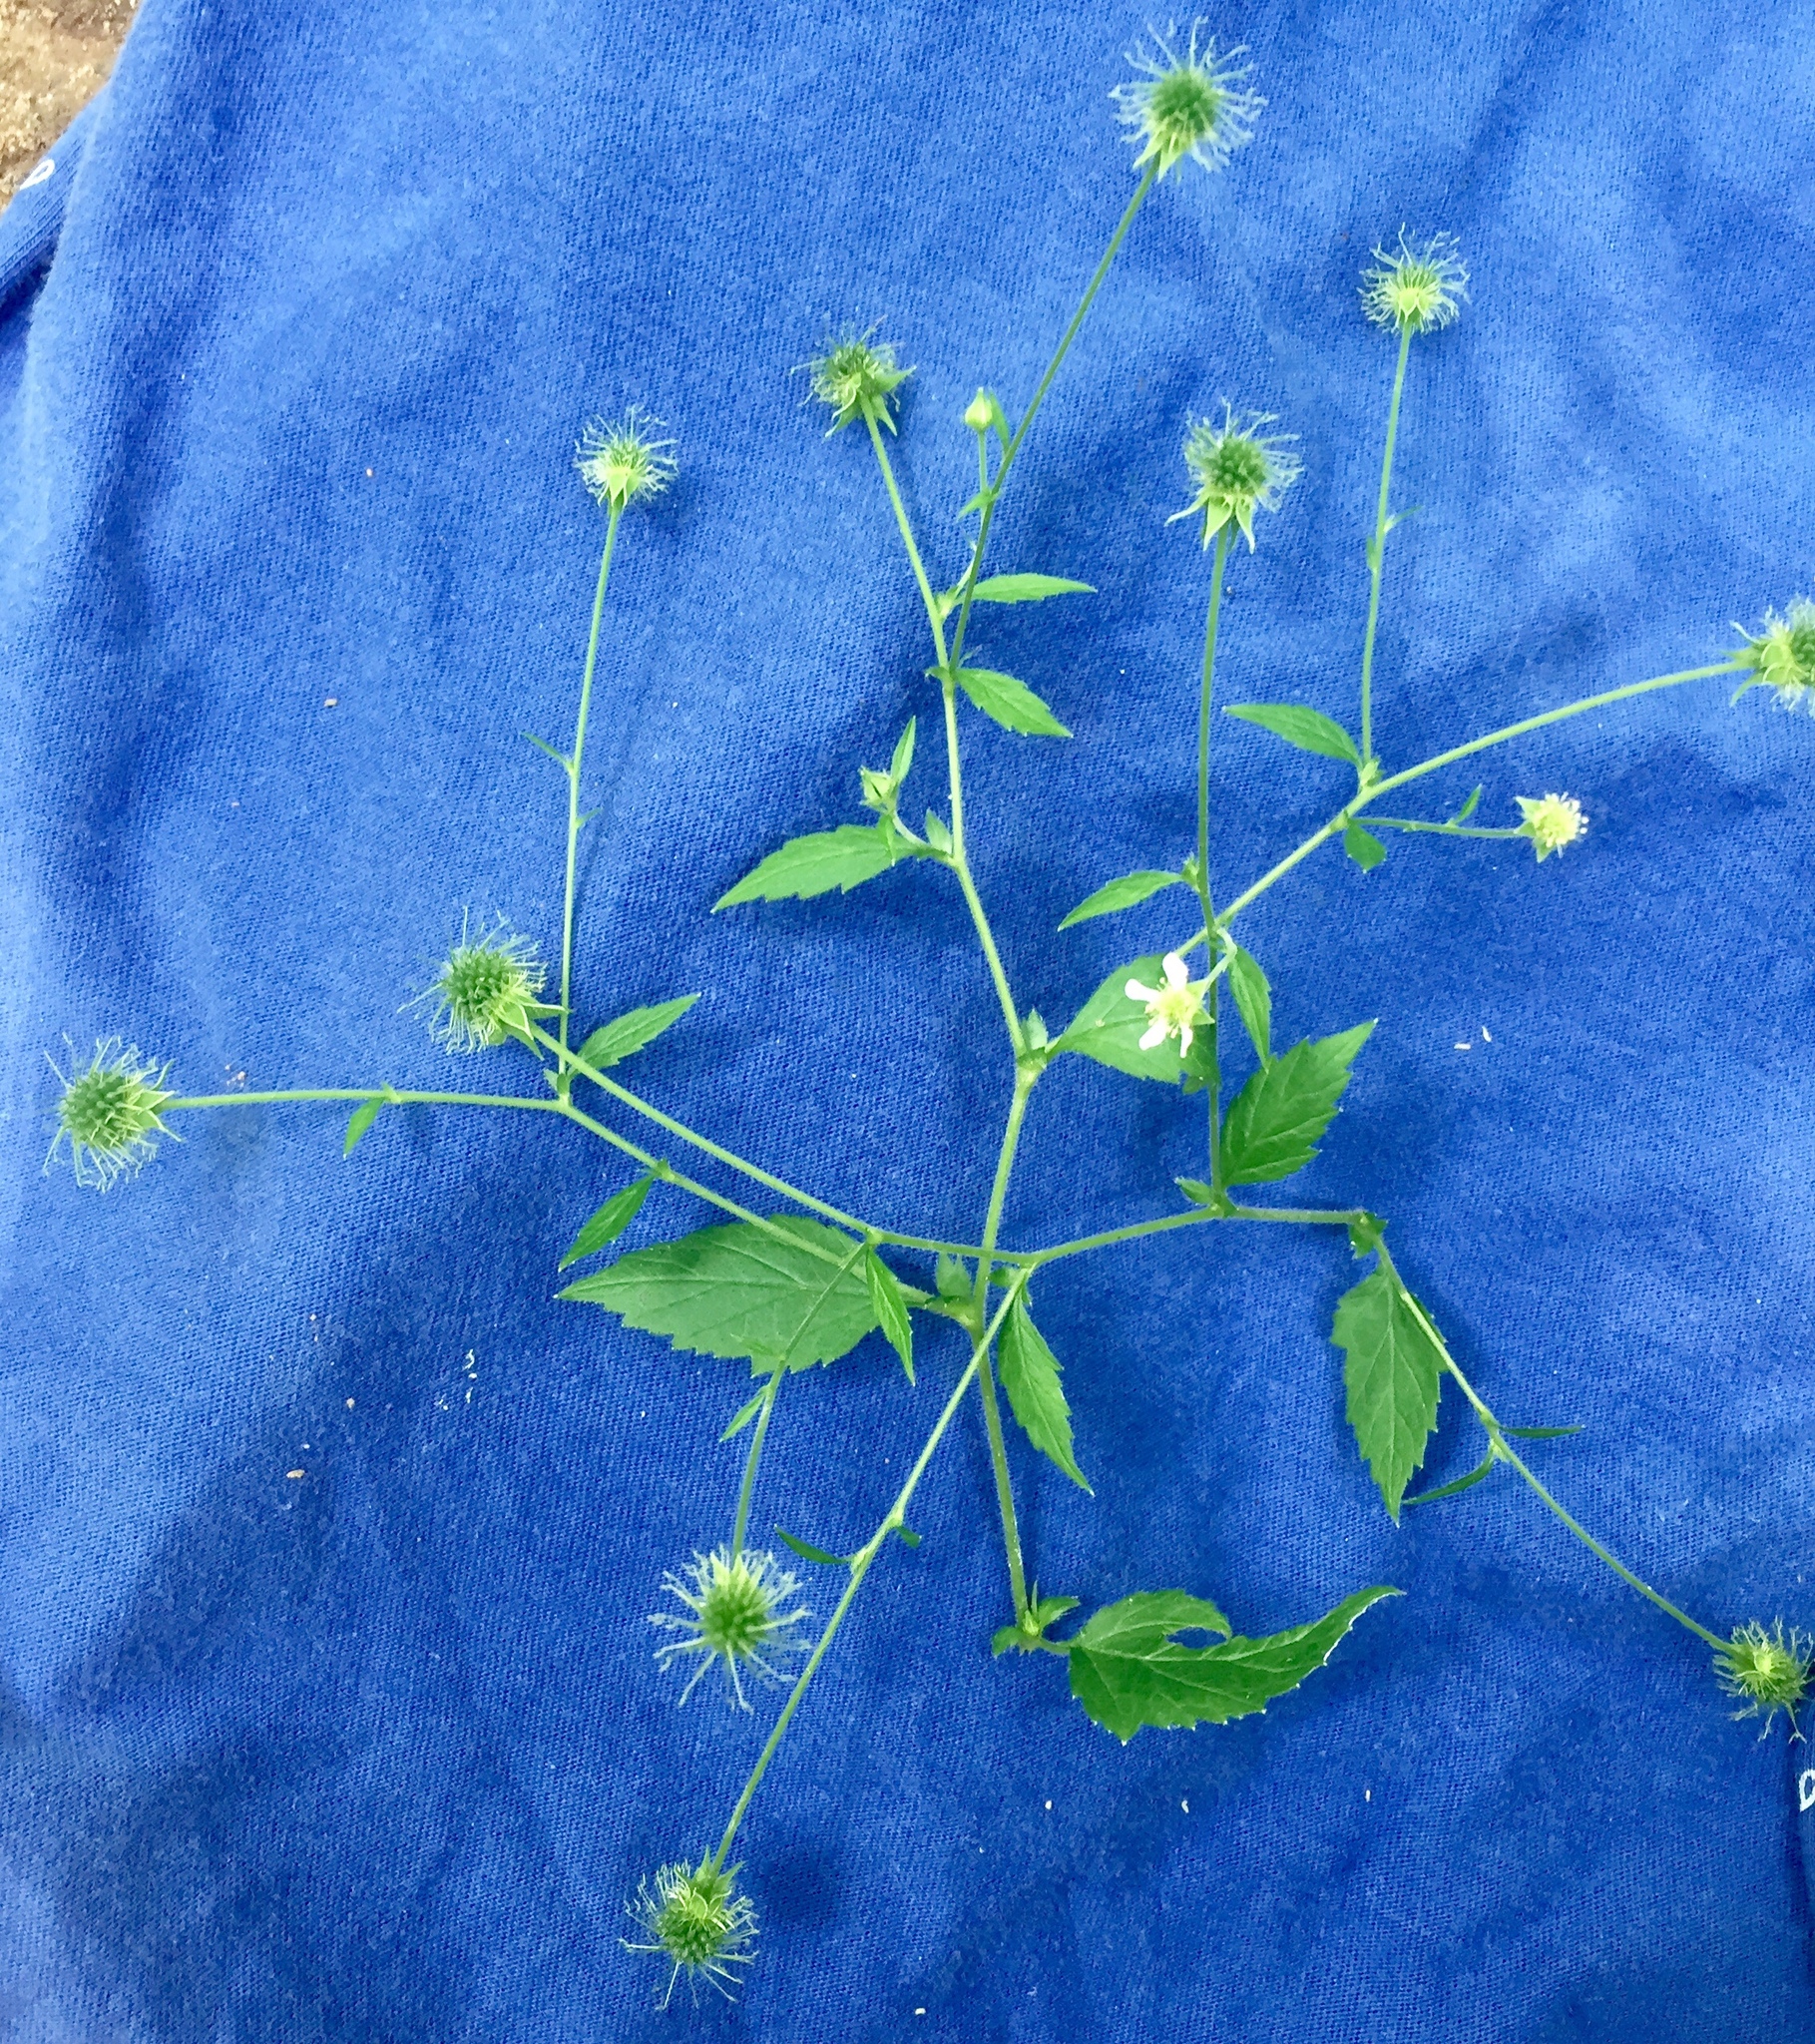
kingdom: Plantae
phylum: Tracheophyta
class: Magnoliopsida
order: Rosales
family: Rosaceae
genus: Geum
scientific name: Geum canadense
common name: White avens
